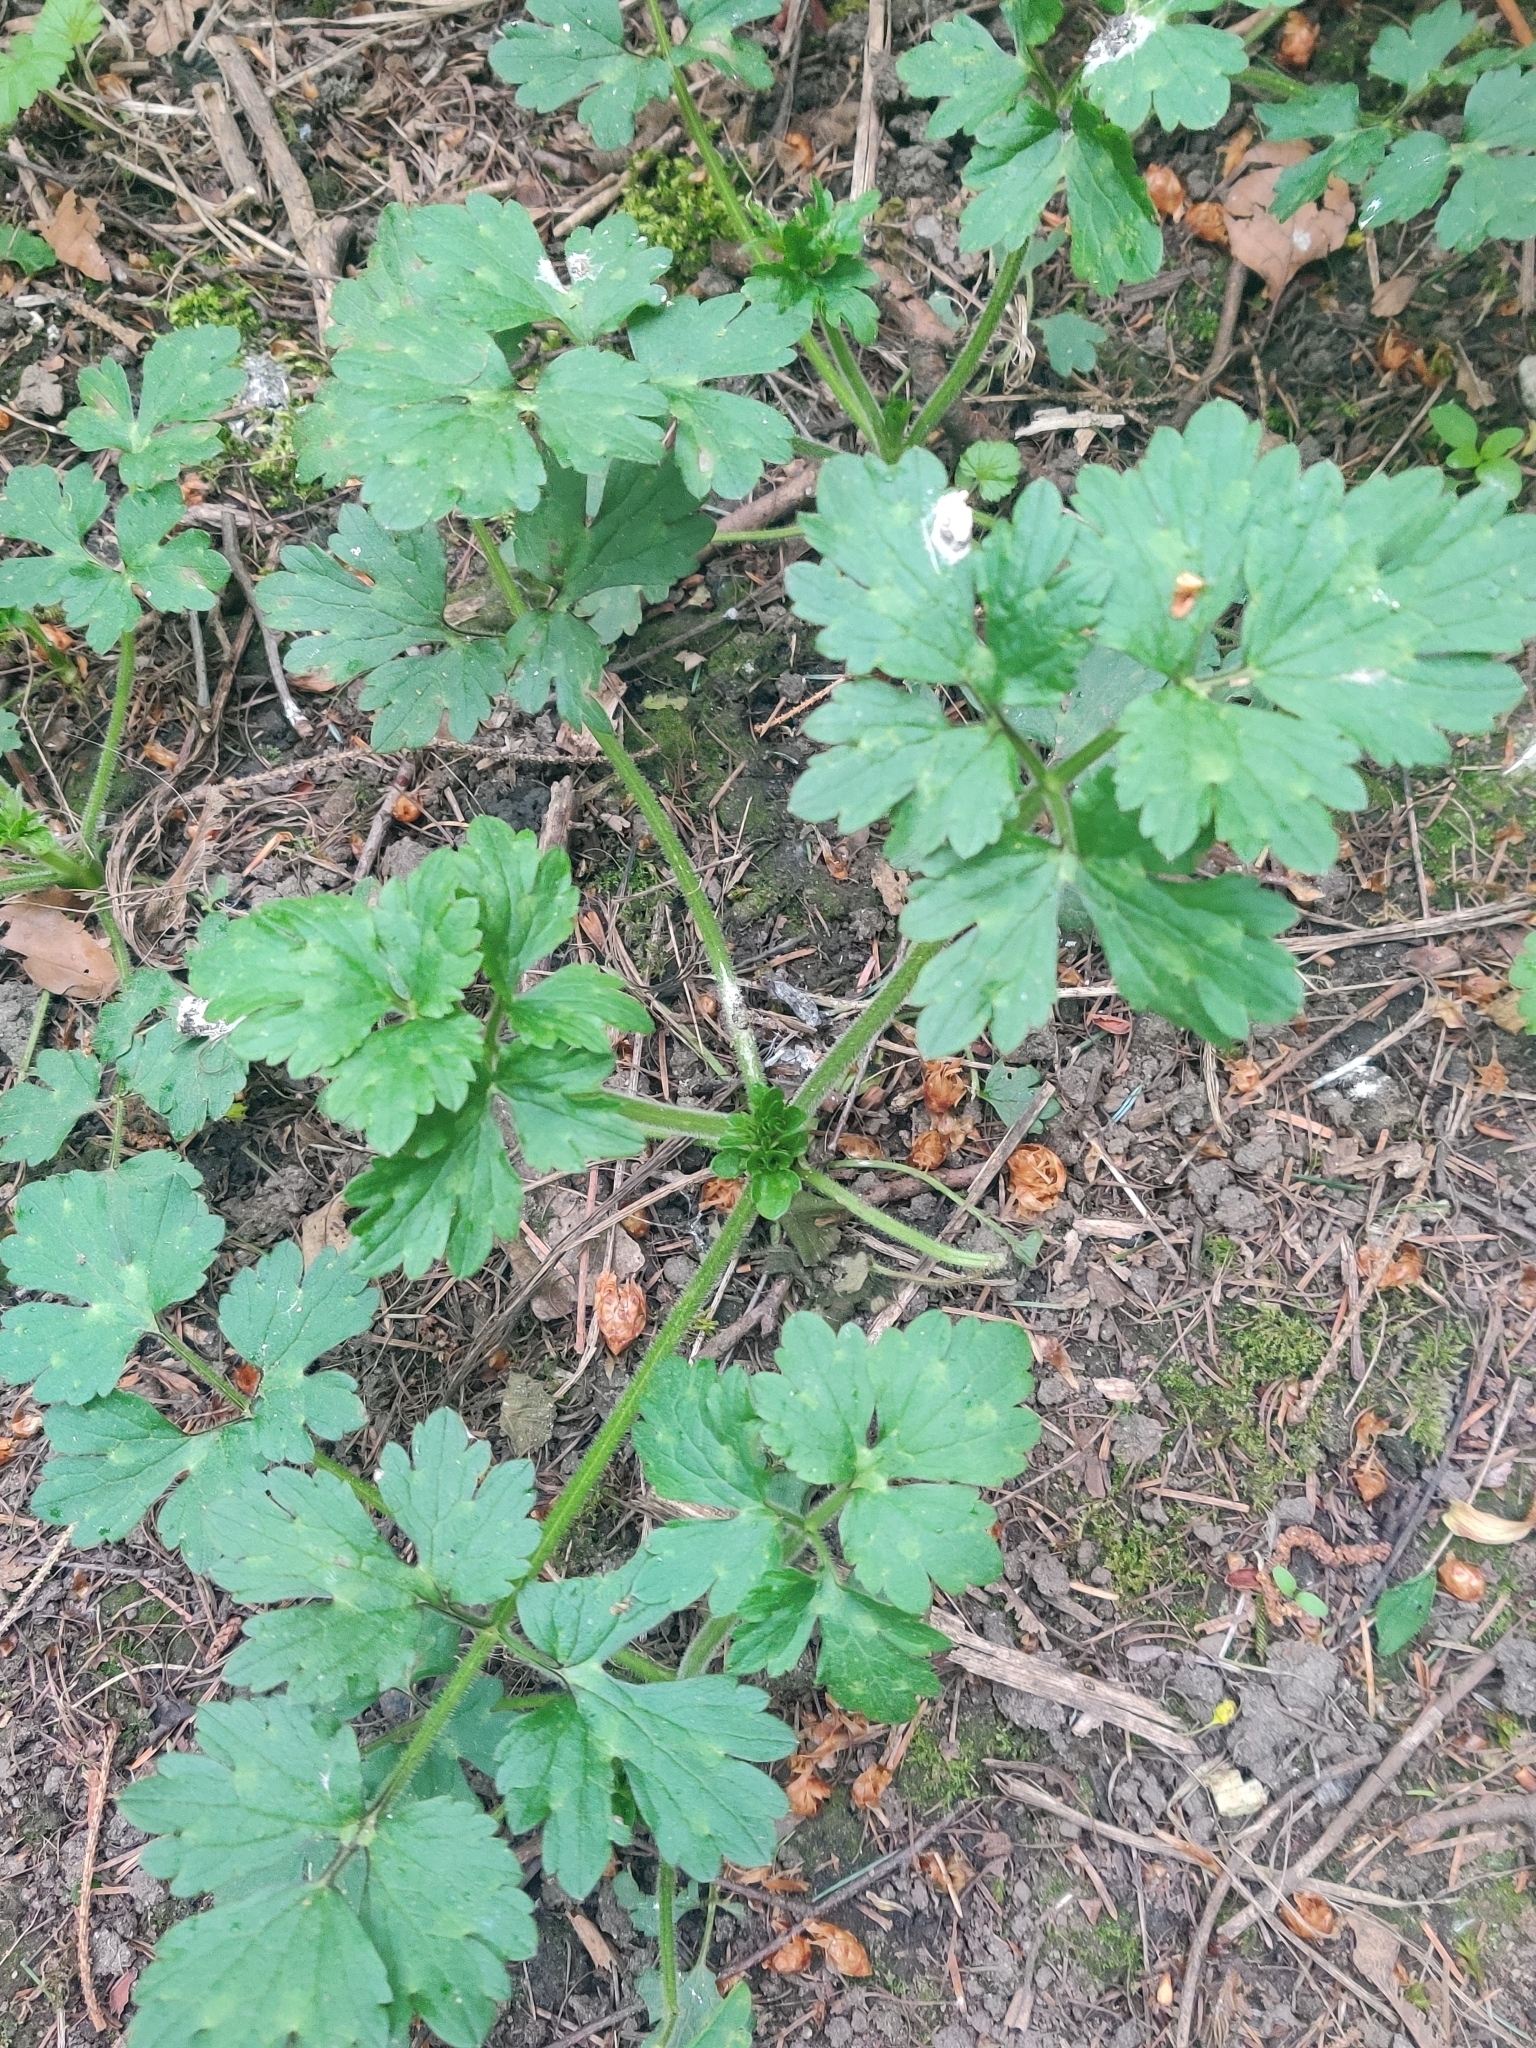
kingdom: Plantae
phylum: Tracheophyta
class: Magnoliopsida
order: Ranunculales
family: Ranunculaceae
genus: Ranunculus
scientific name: Ranunculus repens
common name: Creeping buttercup
